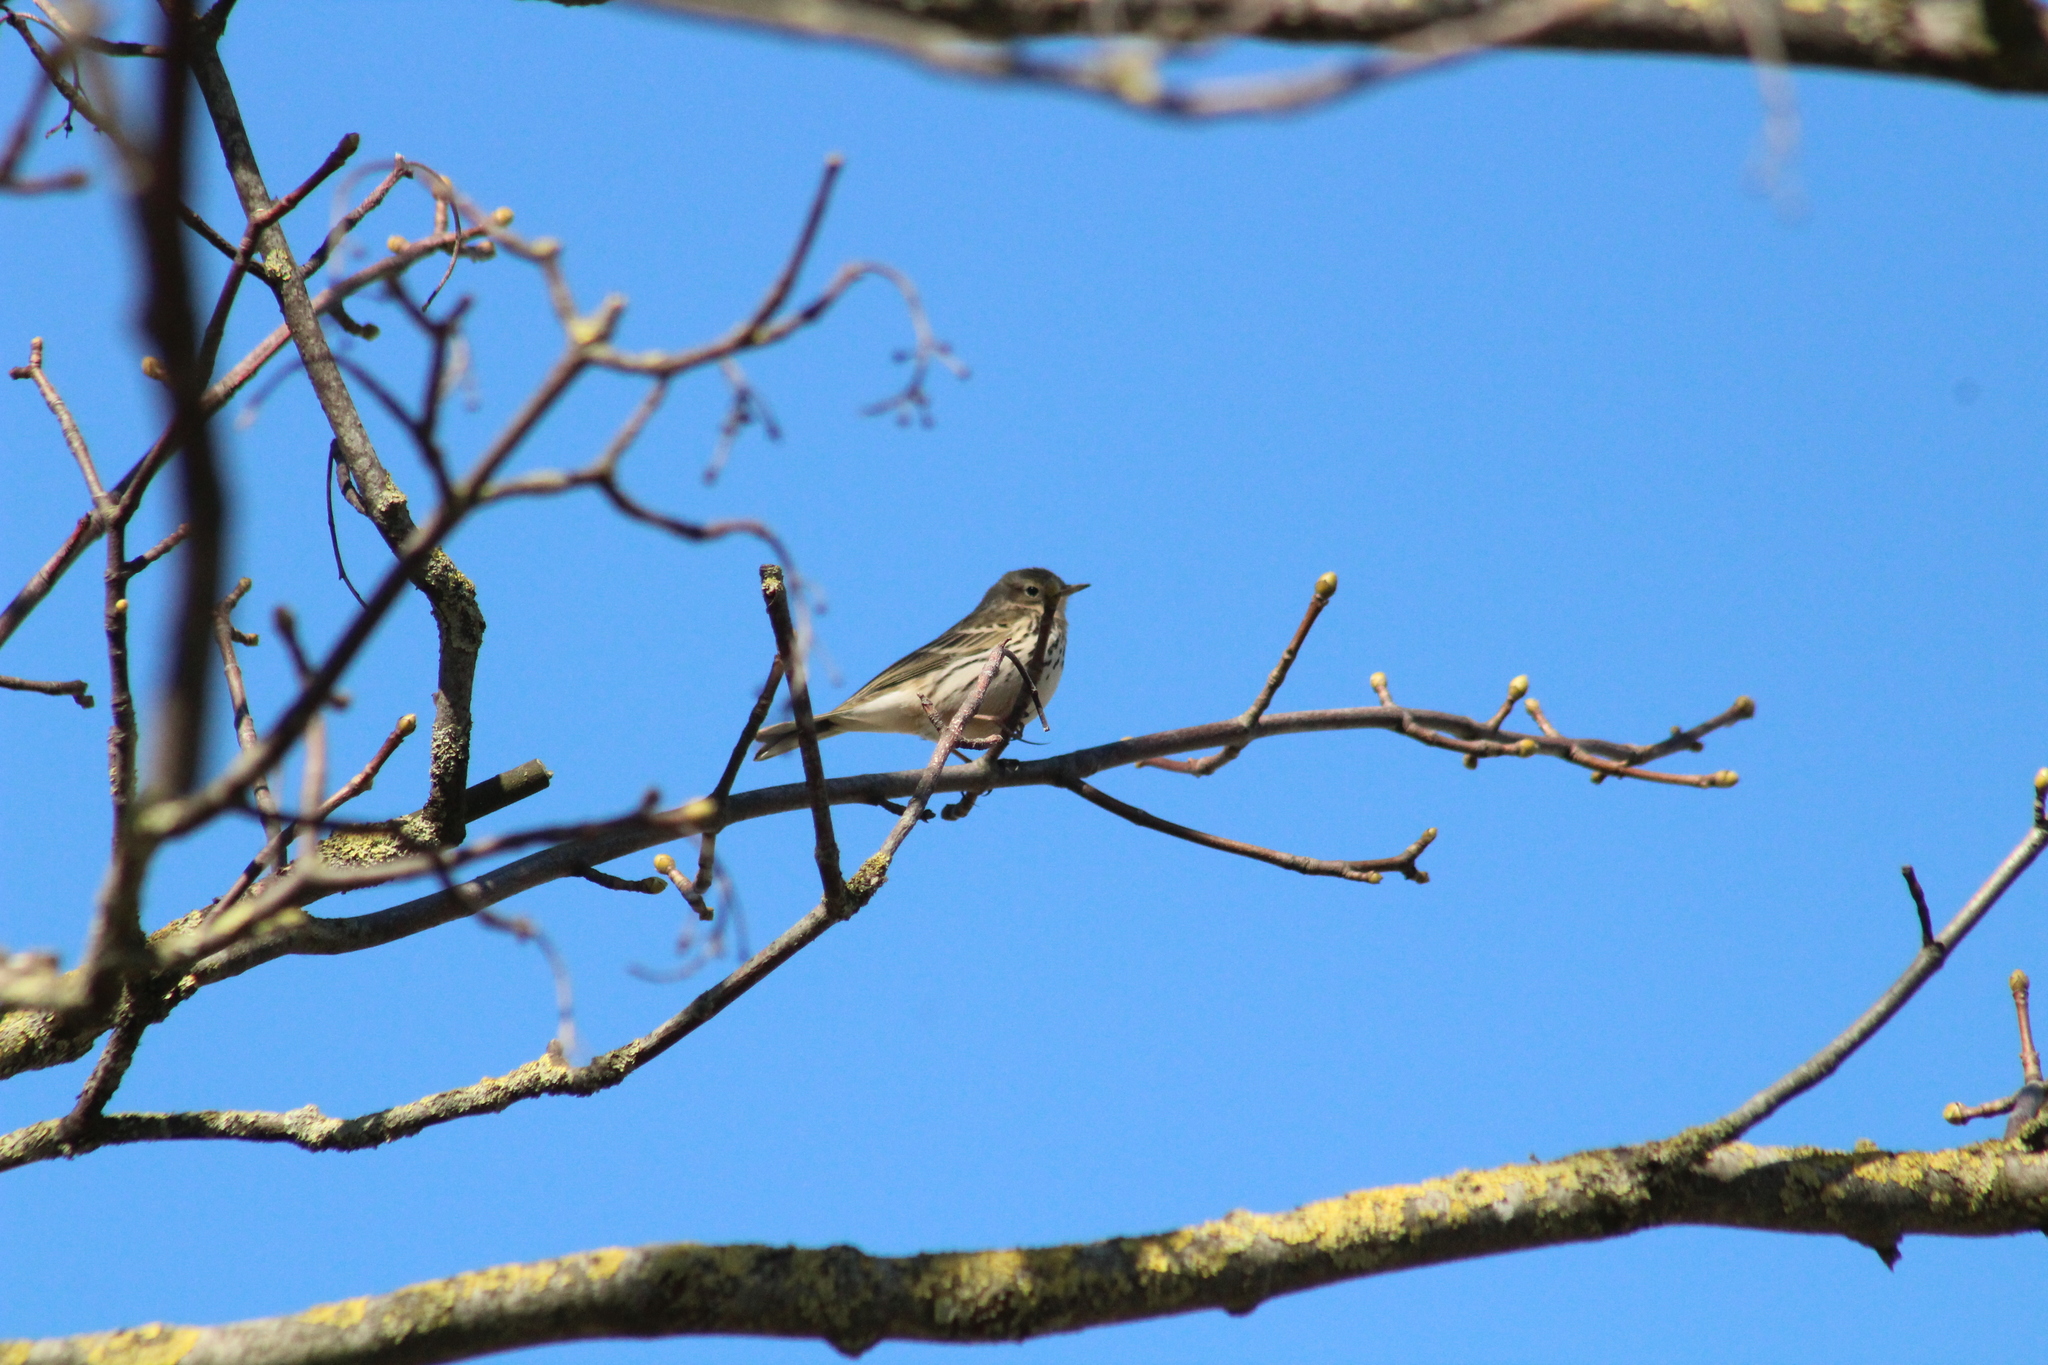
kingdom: Animalia
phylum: Chordata
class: Aves
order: Passeriformes
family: Motacillidae
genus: Anthus
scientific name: Anthus pratensis
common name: Meadow pipit
